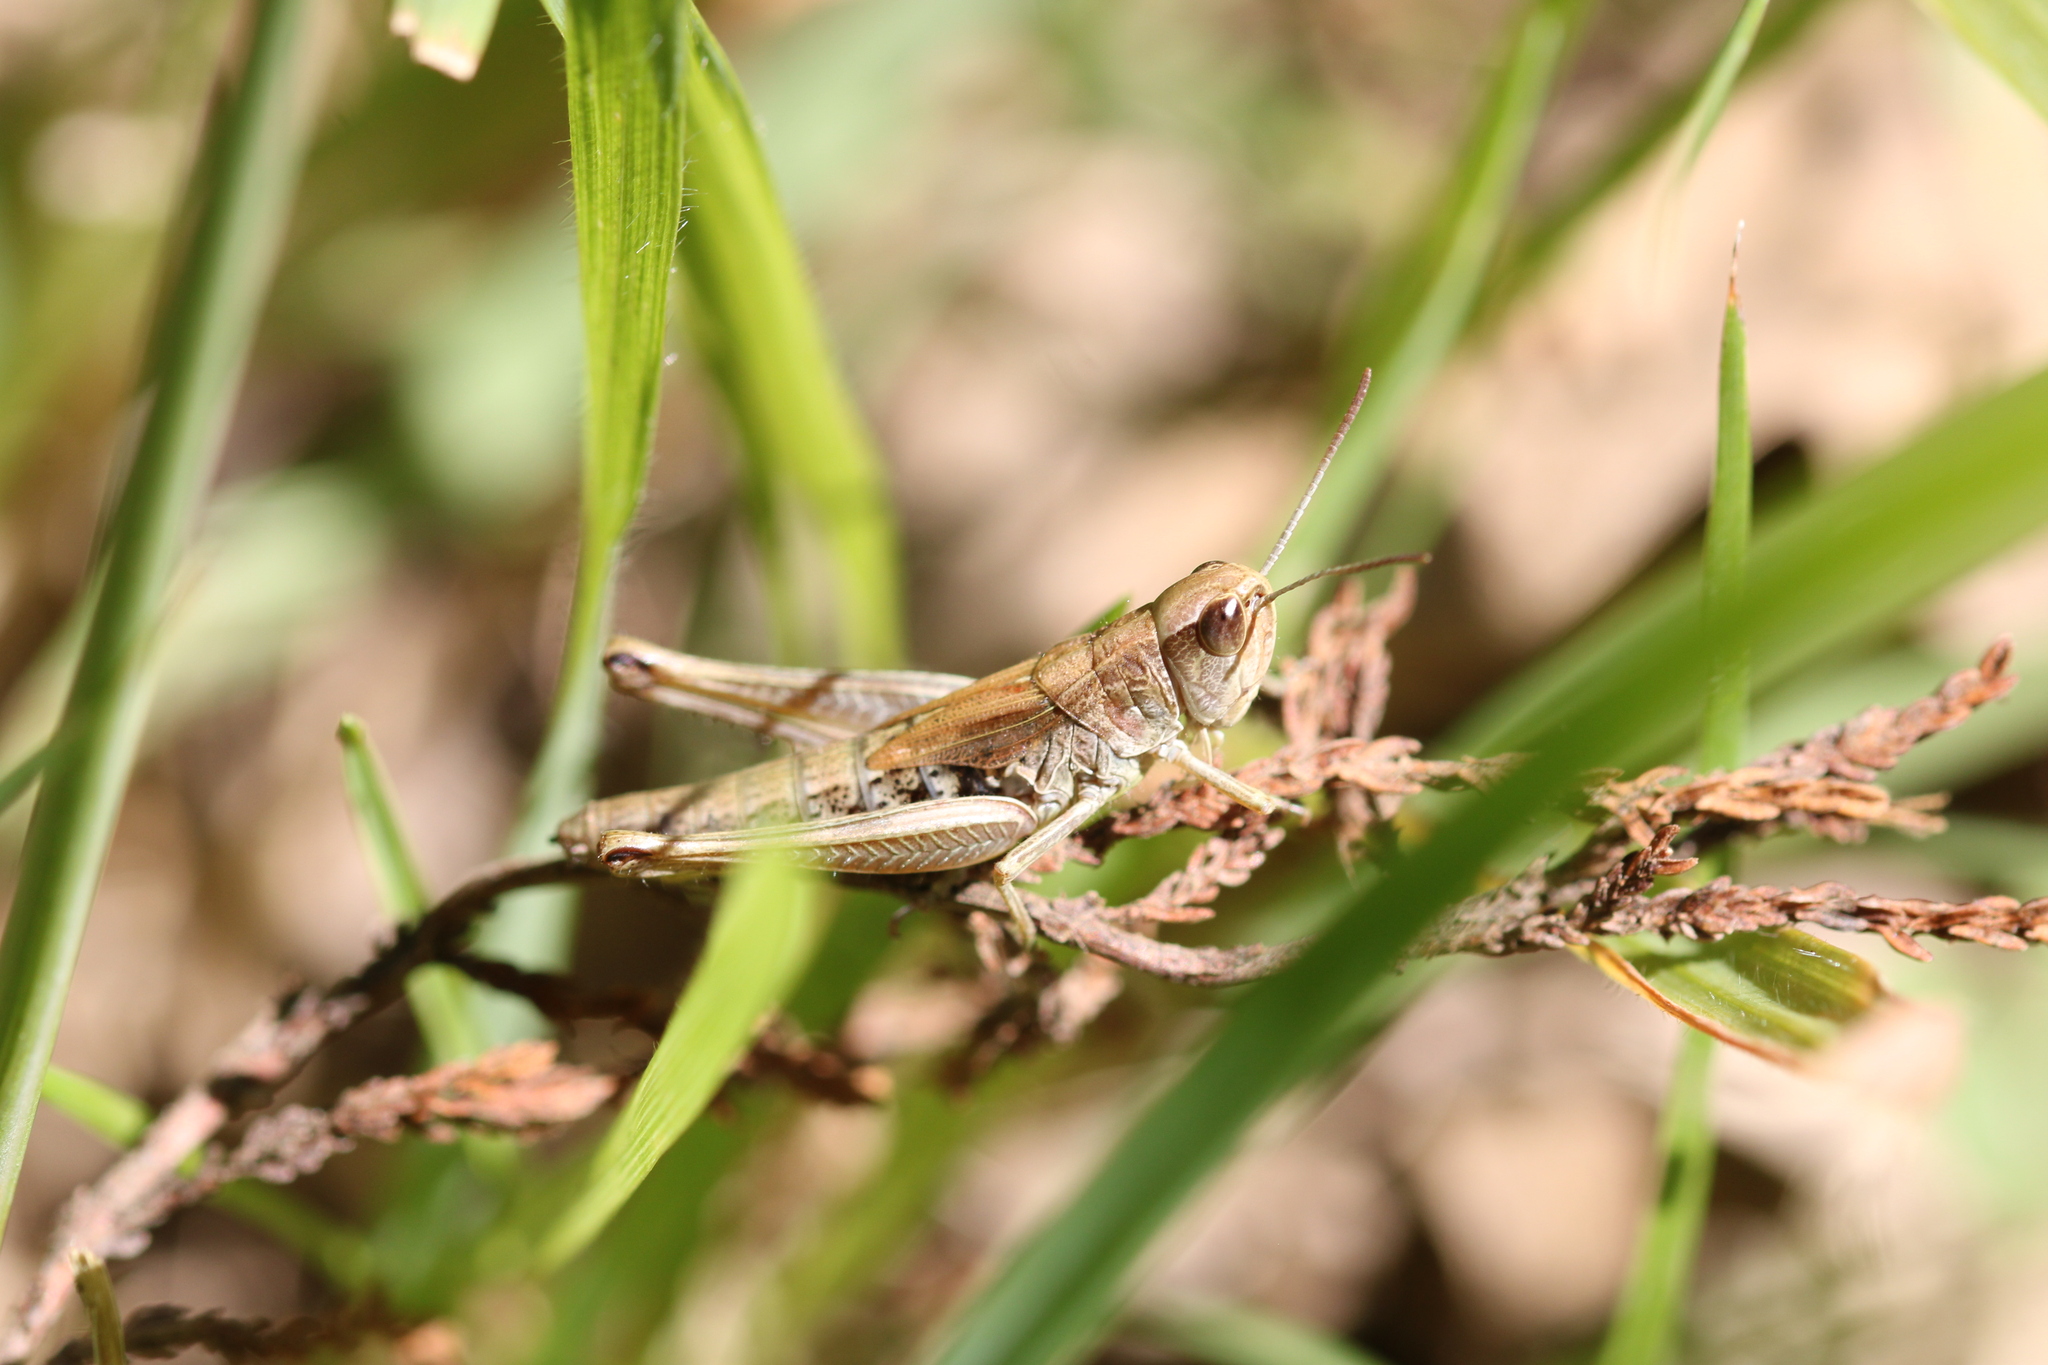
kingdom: Animalia
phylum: Arthropoda
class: Insecta
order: Orthoptera
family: Acrididae
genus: Pseudochorthippus
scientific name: Pseudochorthippus parallelus
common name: Meadow grasshopper
